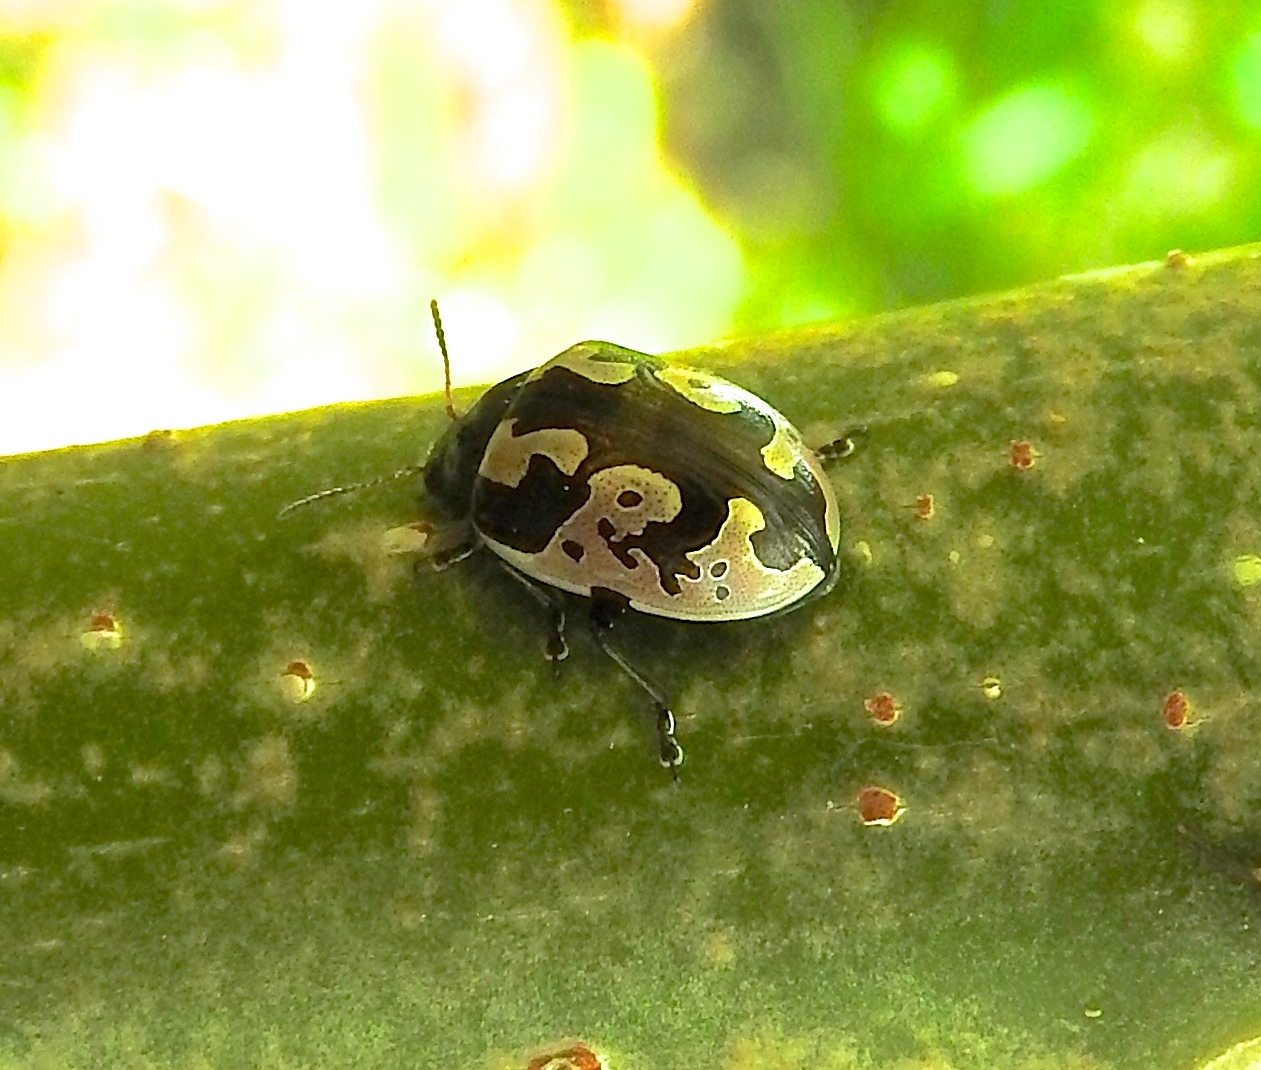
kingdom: Animalia
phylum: Arthropoda
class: Insecta
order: Coleoptera
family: Chrysomelidae
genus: Calligrapha
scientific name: Calligrapha ancoralis
